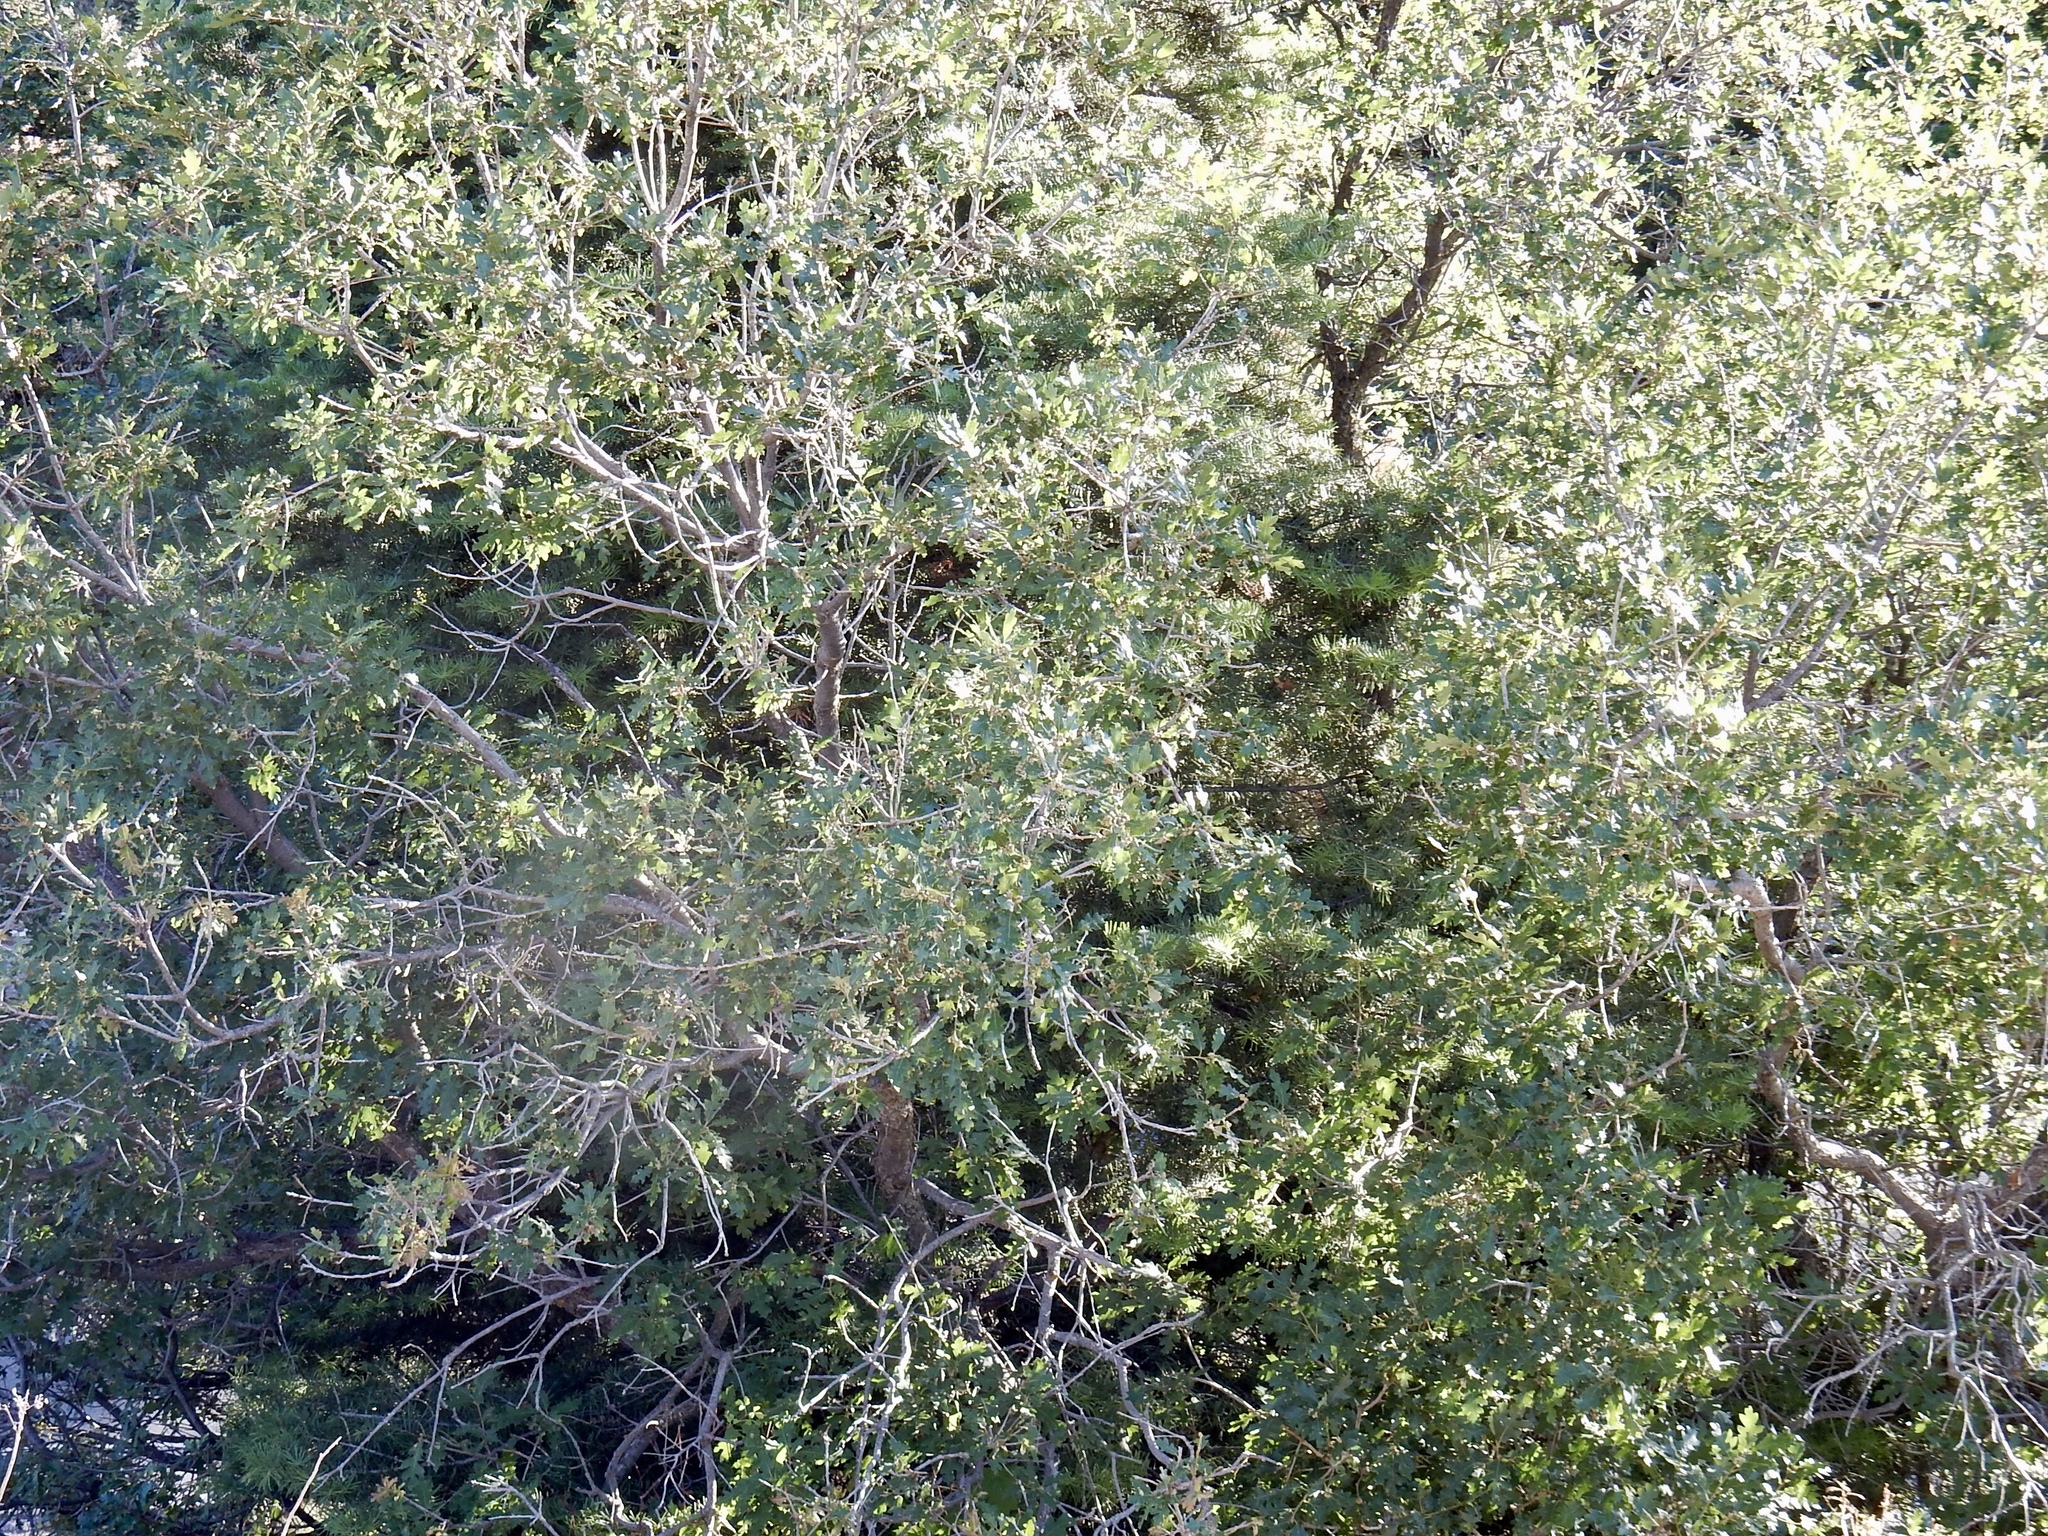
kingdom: Plantae
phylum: Tracheophyta
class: Magnoliopsida
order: Fagales
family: Fagaceae
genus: Quercus
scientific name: Quercus gambelii
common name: Gambel oak
